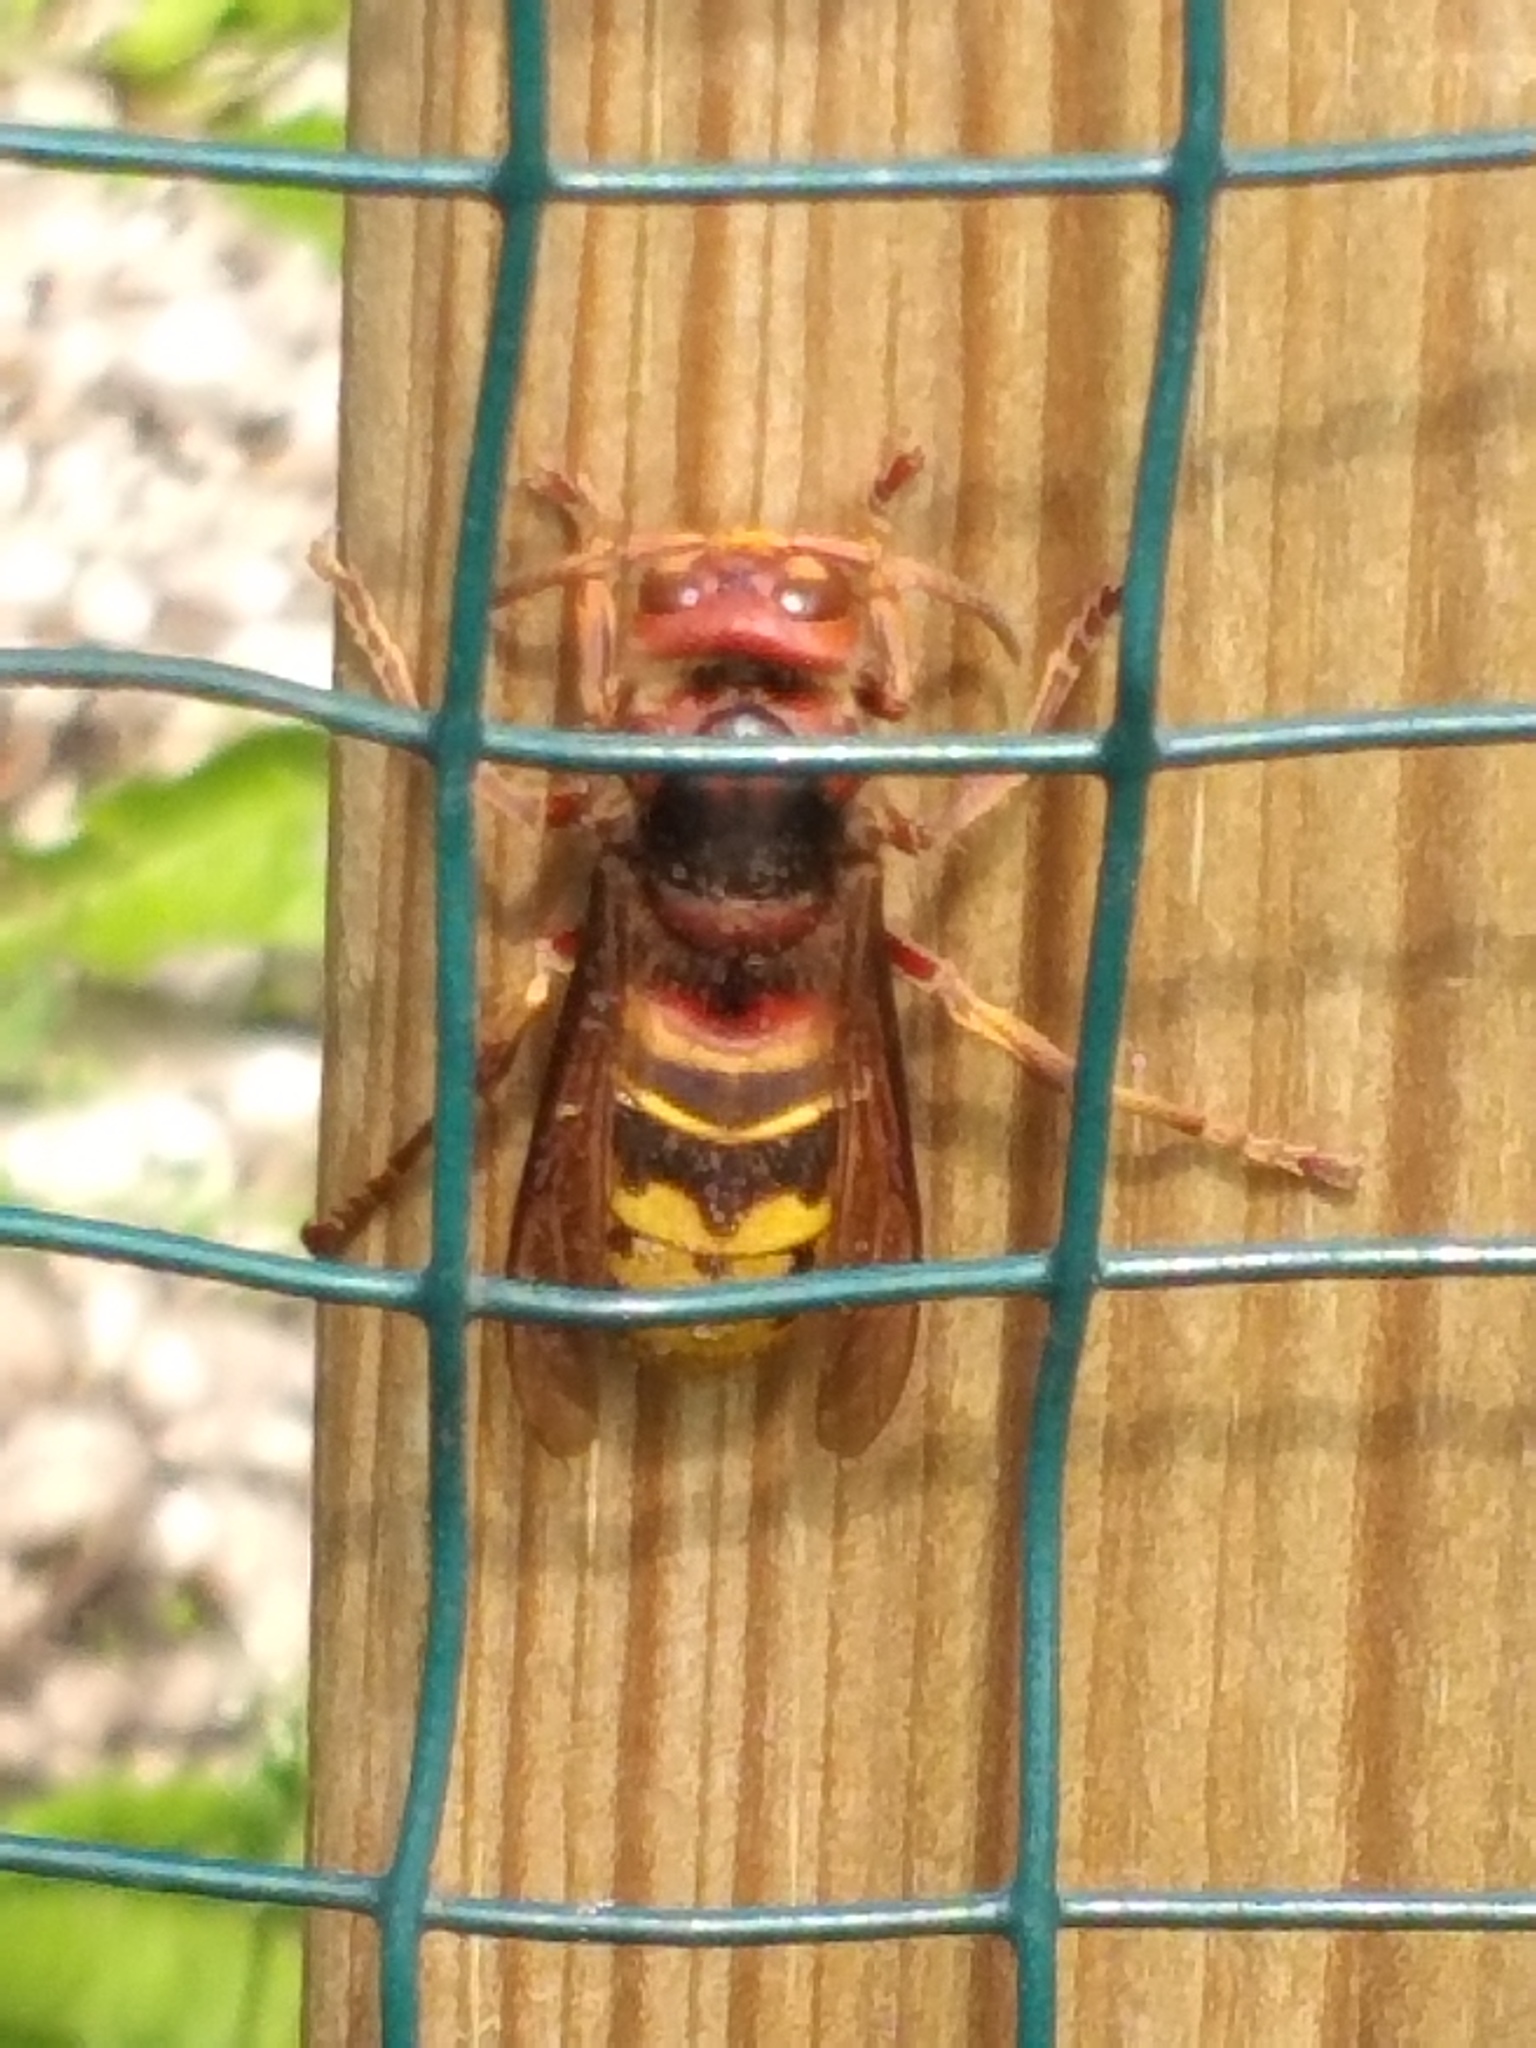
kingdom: Animalia
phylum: Arthropoda
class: Insecta
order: Hymenoptera
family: Vespidae
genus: Vespa
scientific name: Vespa crabro
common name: Hornet
